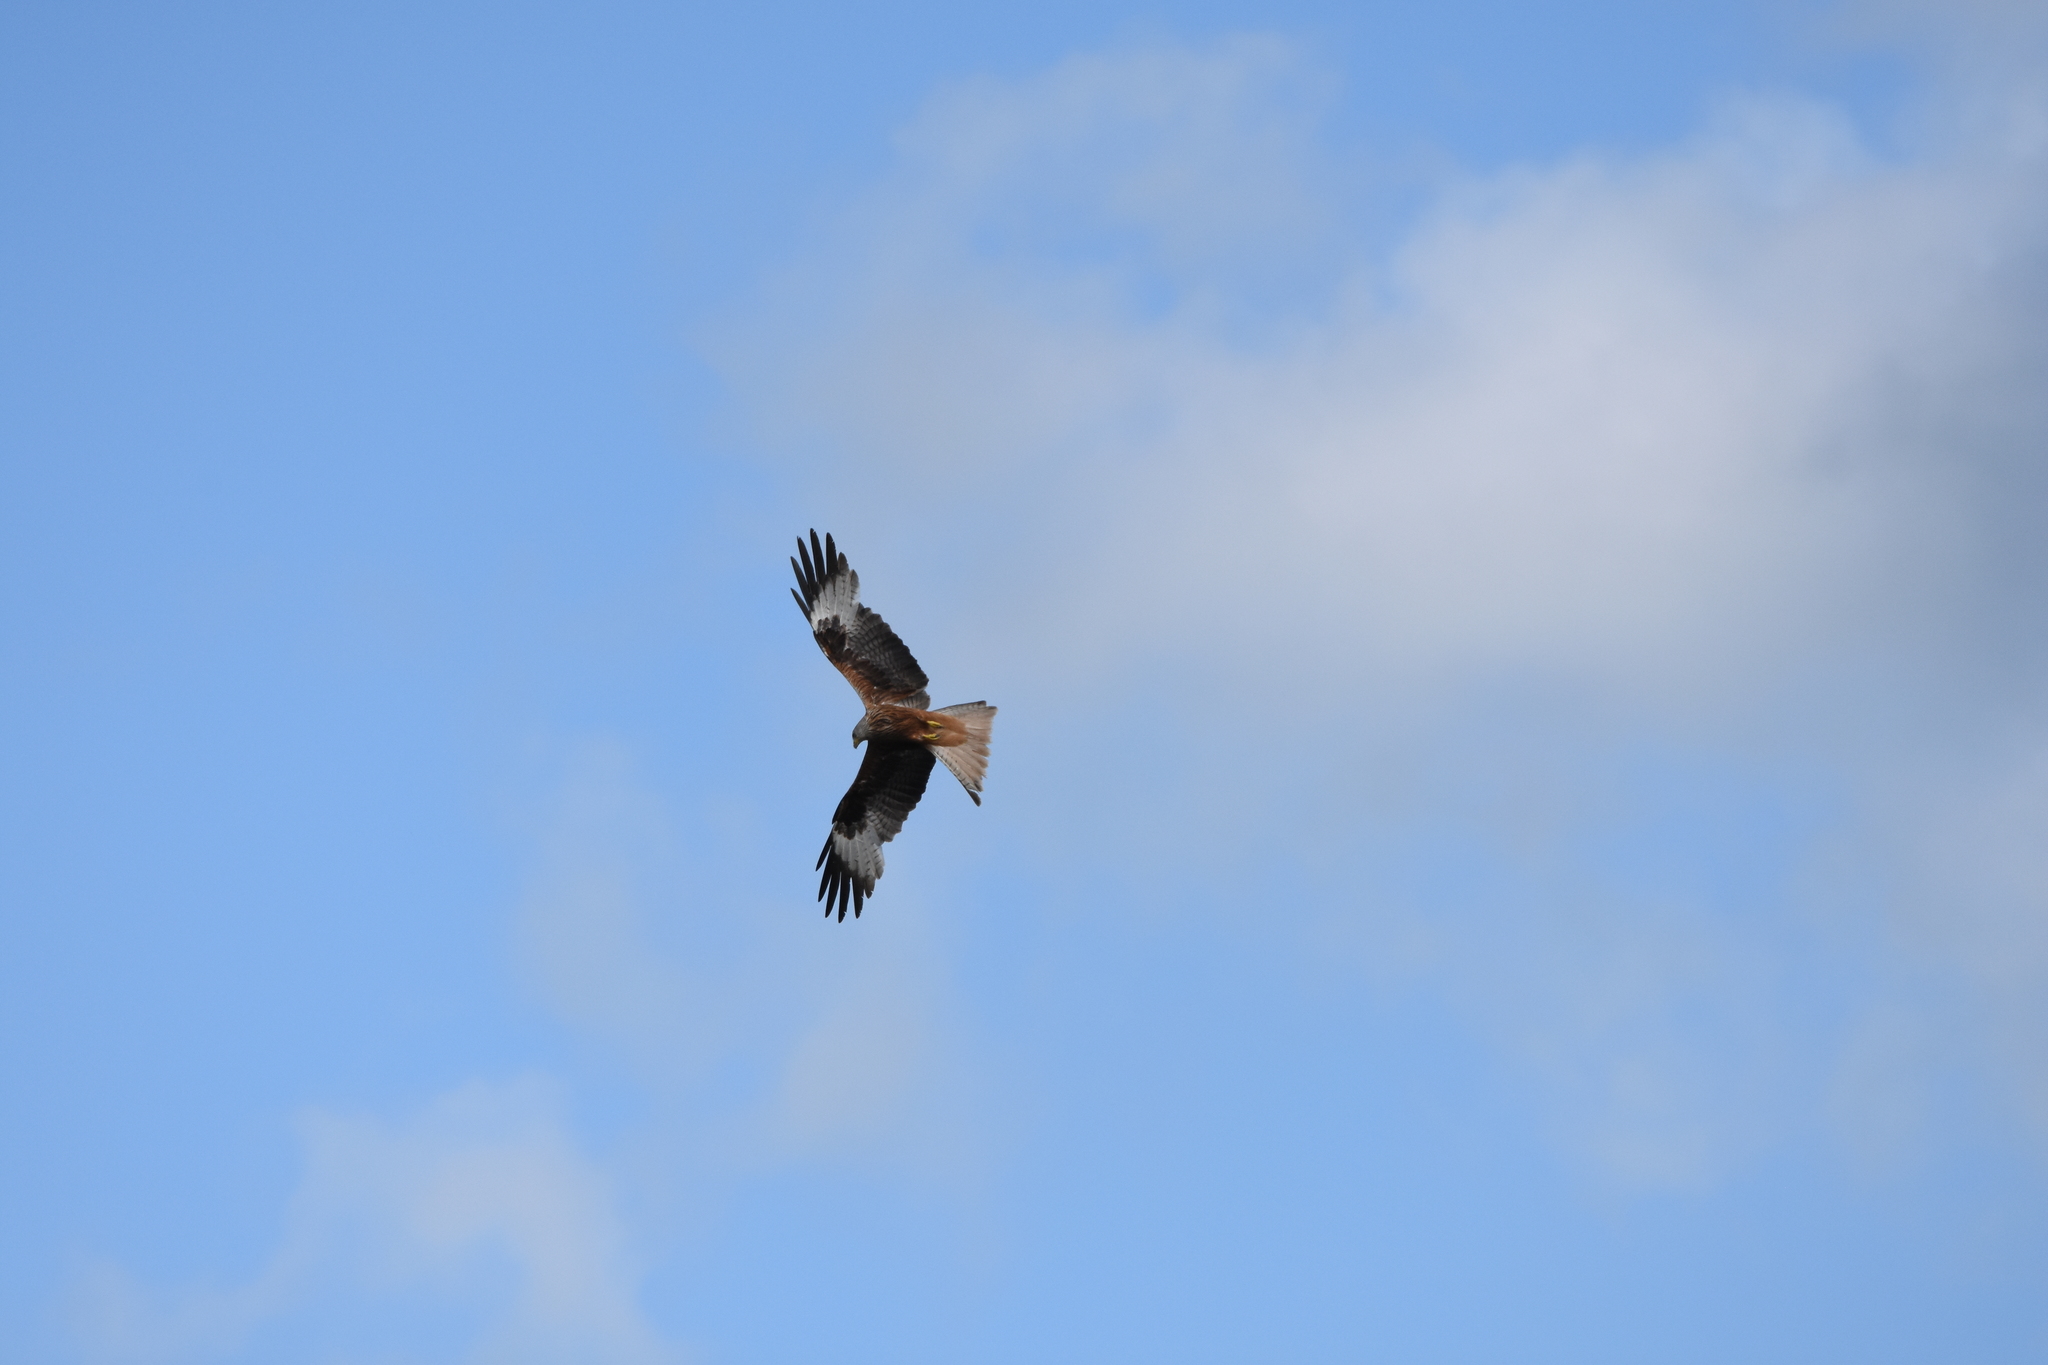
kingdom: Animalia
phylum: Chordata
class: Aves
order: Accipitriformes
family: Accipitridae
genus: Milvus
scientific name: Milvus milvus
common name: Red kite
